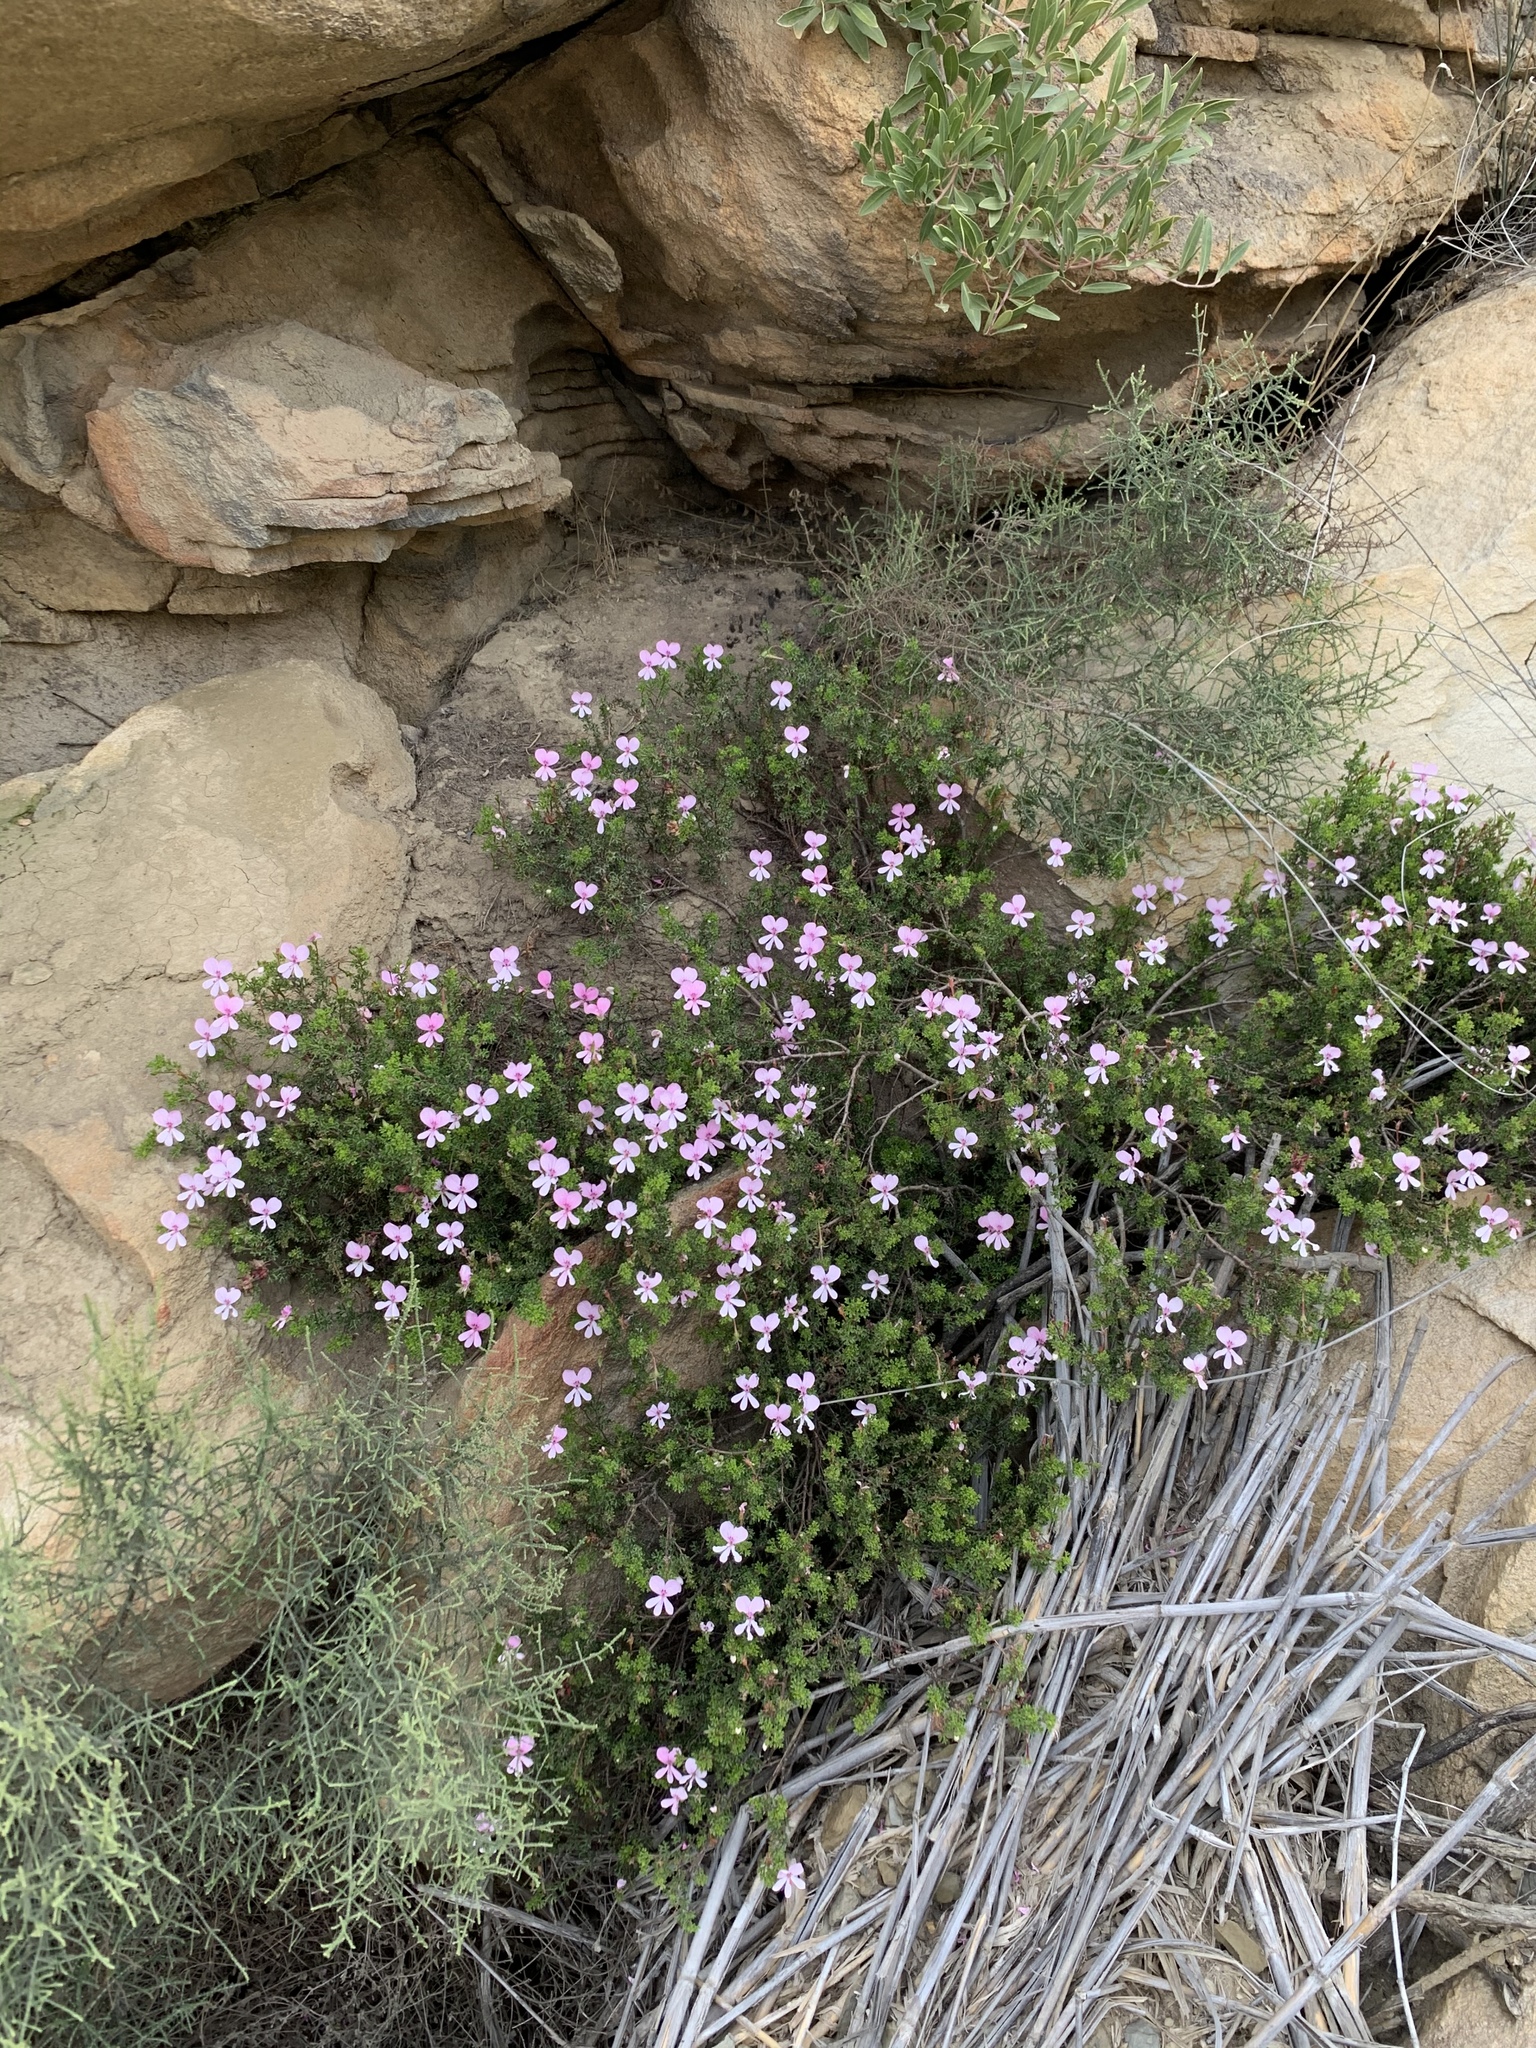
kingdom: Plantae
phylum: Tracheophyta
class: Magnoliopsida
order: Geraniales
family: Geraniaceae
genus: Pelargonium
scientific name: Pelargonium fruticosum
